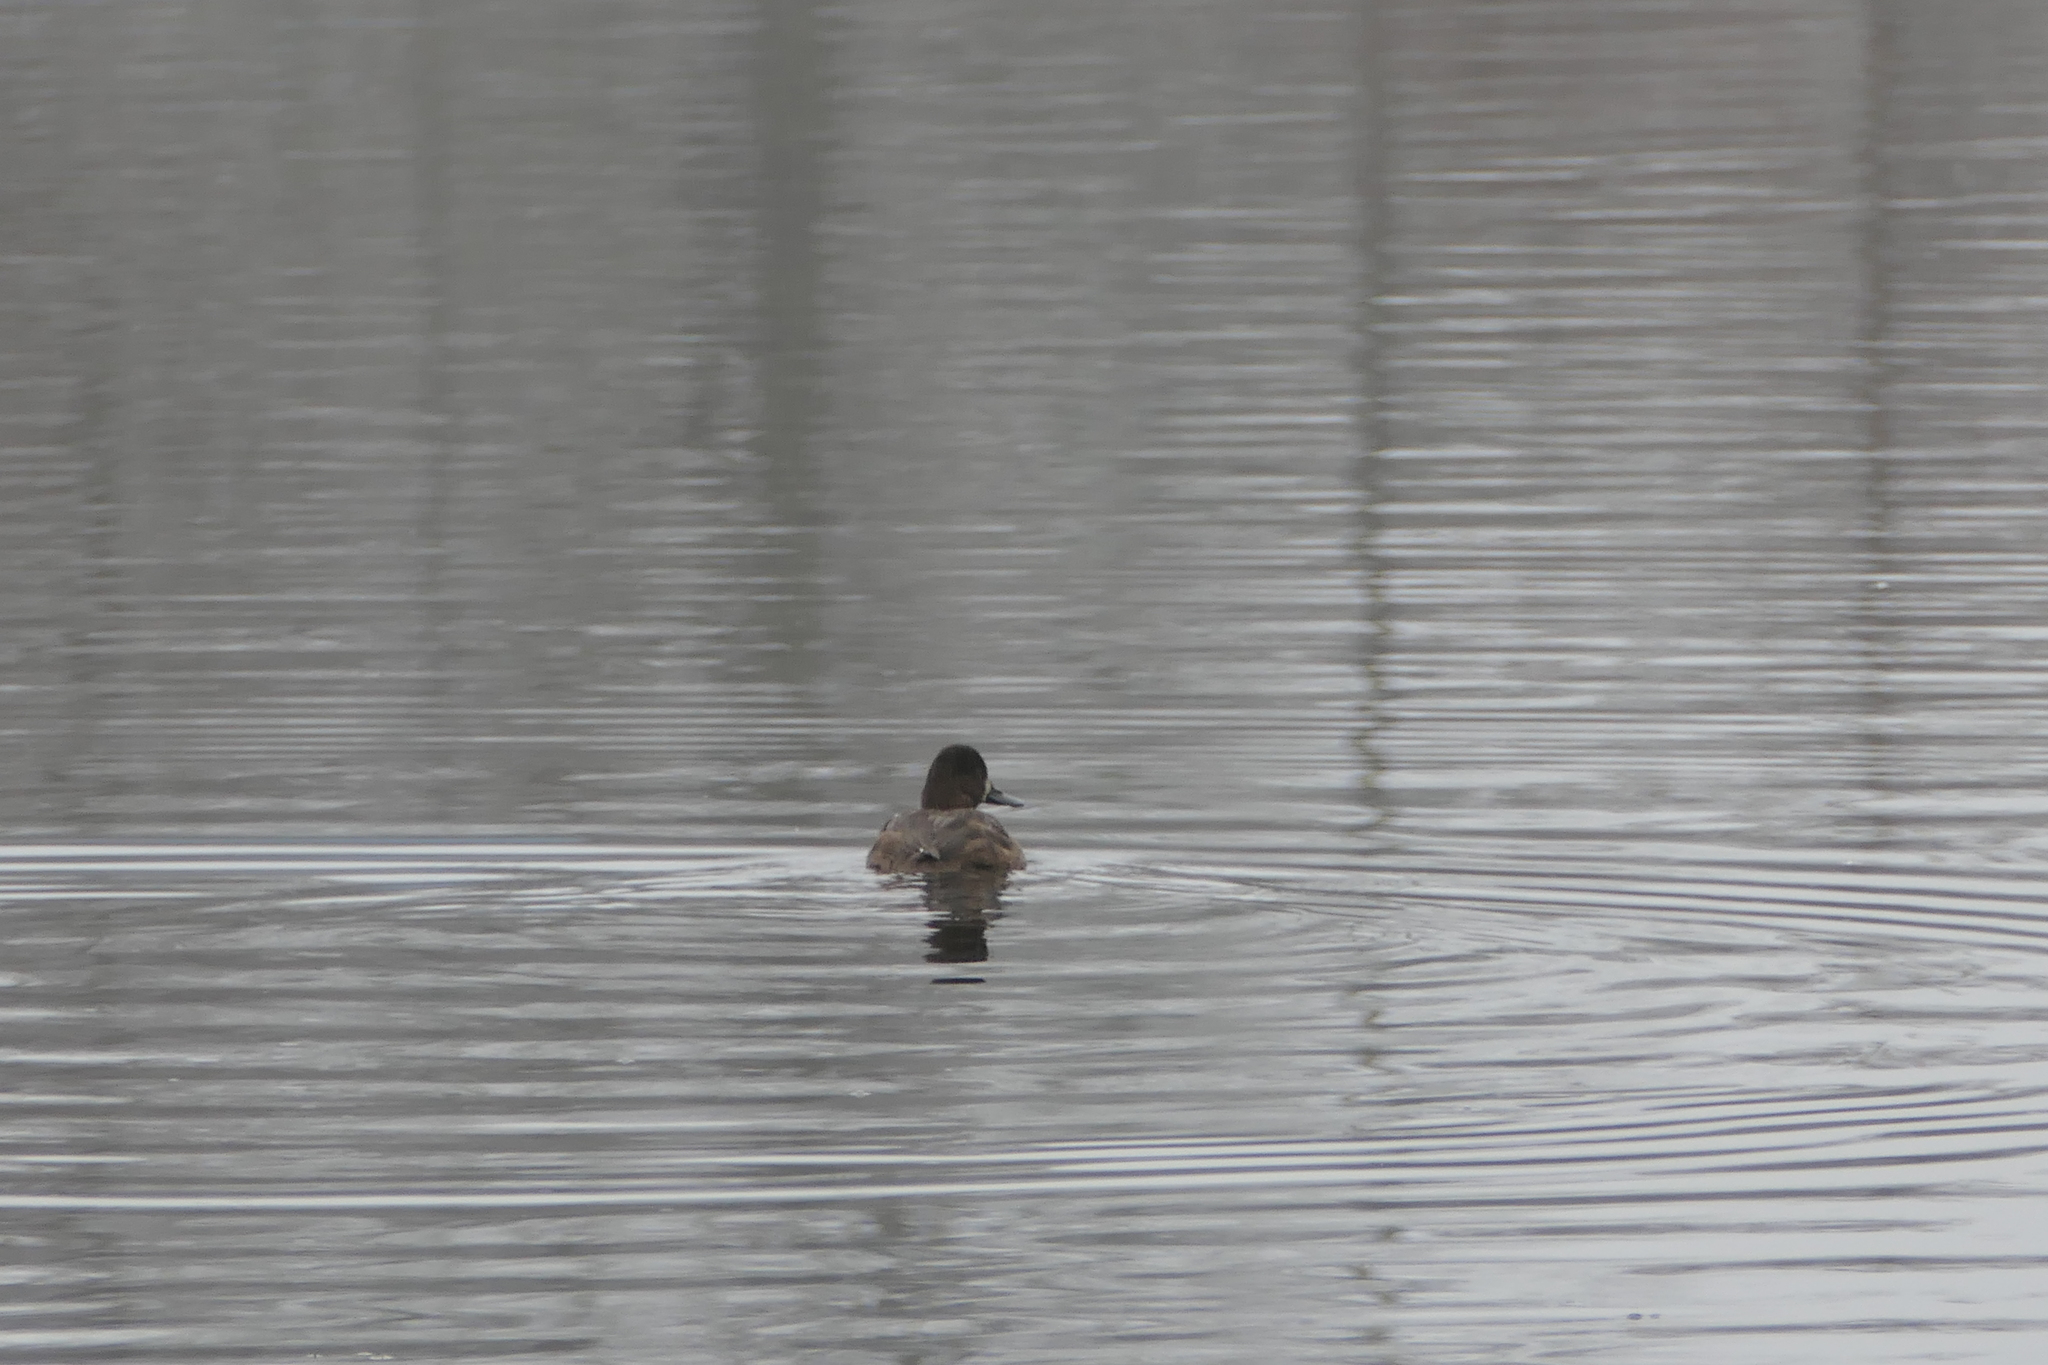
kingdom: Animalia
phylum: Chordata
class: Aves
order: Anseriformes
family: Anatidae
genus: Aythya
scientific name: Aythya affinis
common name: Lesser scaup
